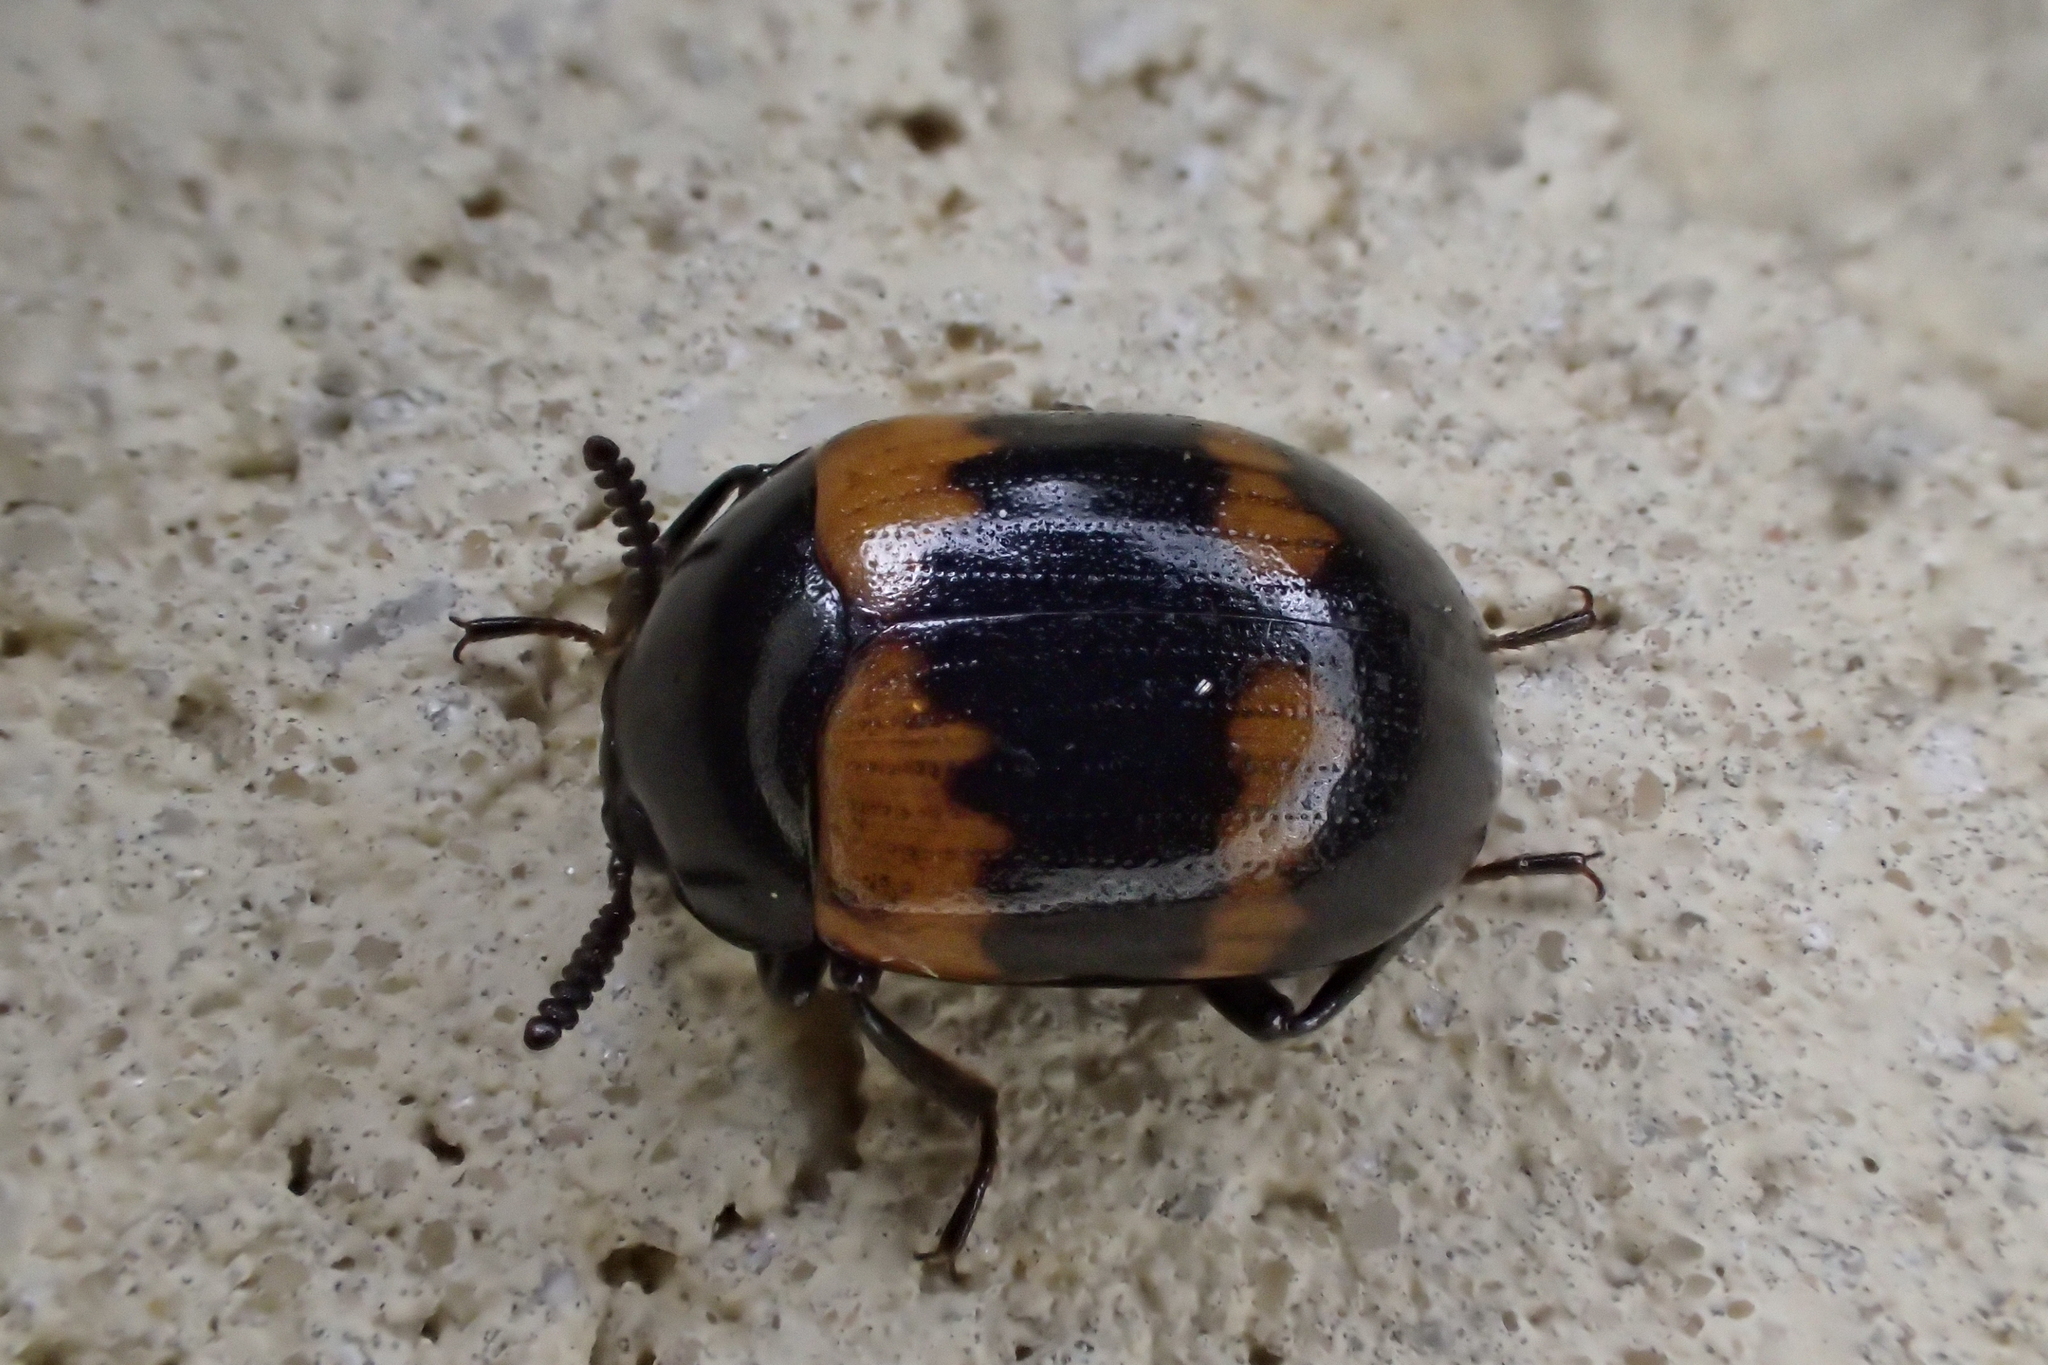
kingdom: Animalia
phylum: Arthropoda
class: Insecta
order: Coleoptera
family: Tenebrionidae
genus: Diaperis
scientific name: Diaperis boleti
